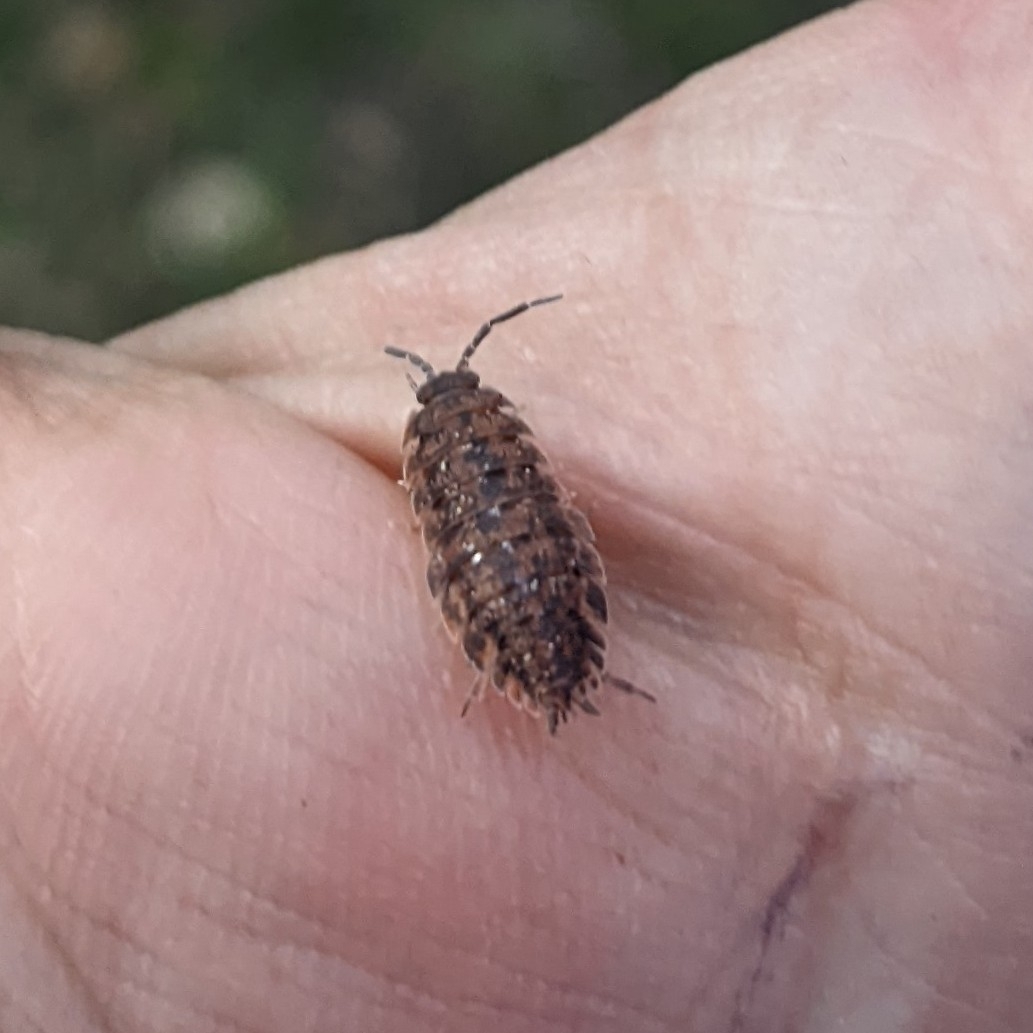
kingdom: Animalia
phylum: Arthropoda
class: Malacostraca
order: Isopoda
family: Porcellionidae
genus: Porcellio
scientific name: Porcellio scaber
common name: Common rough woodlouse
